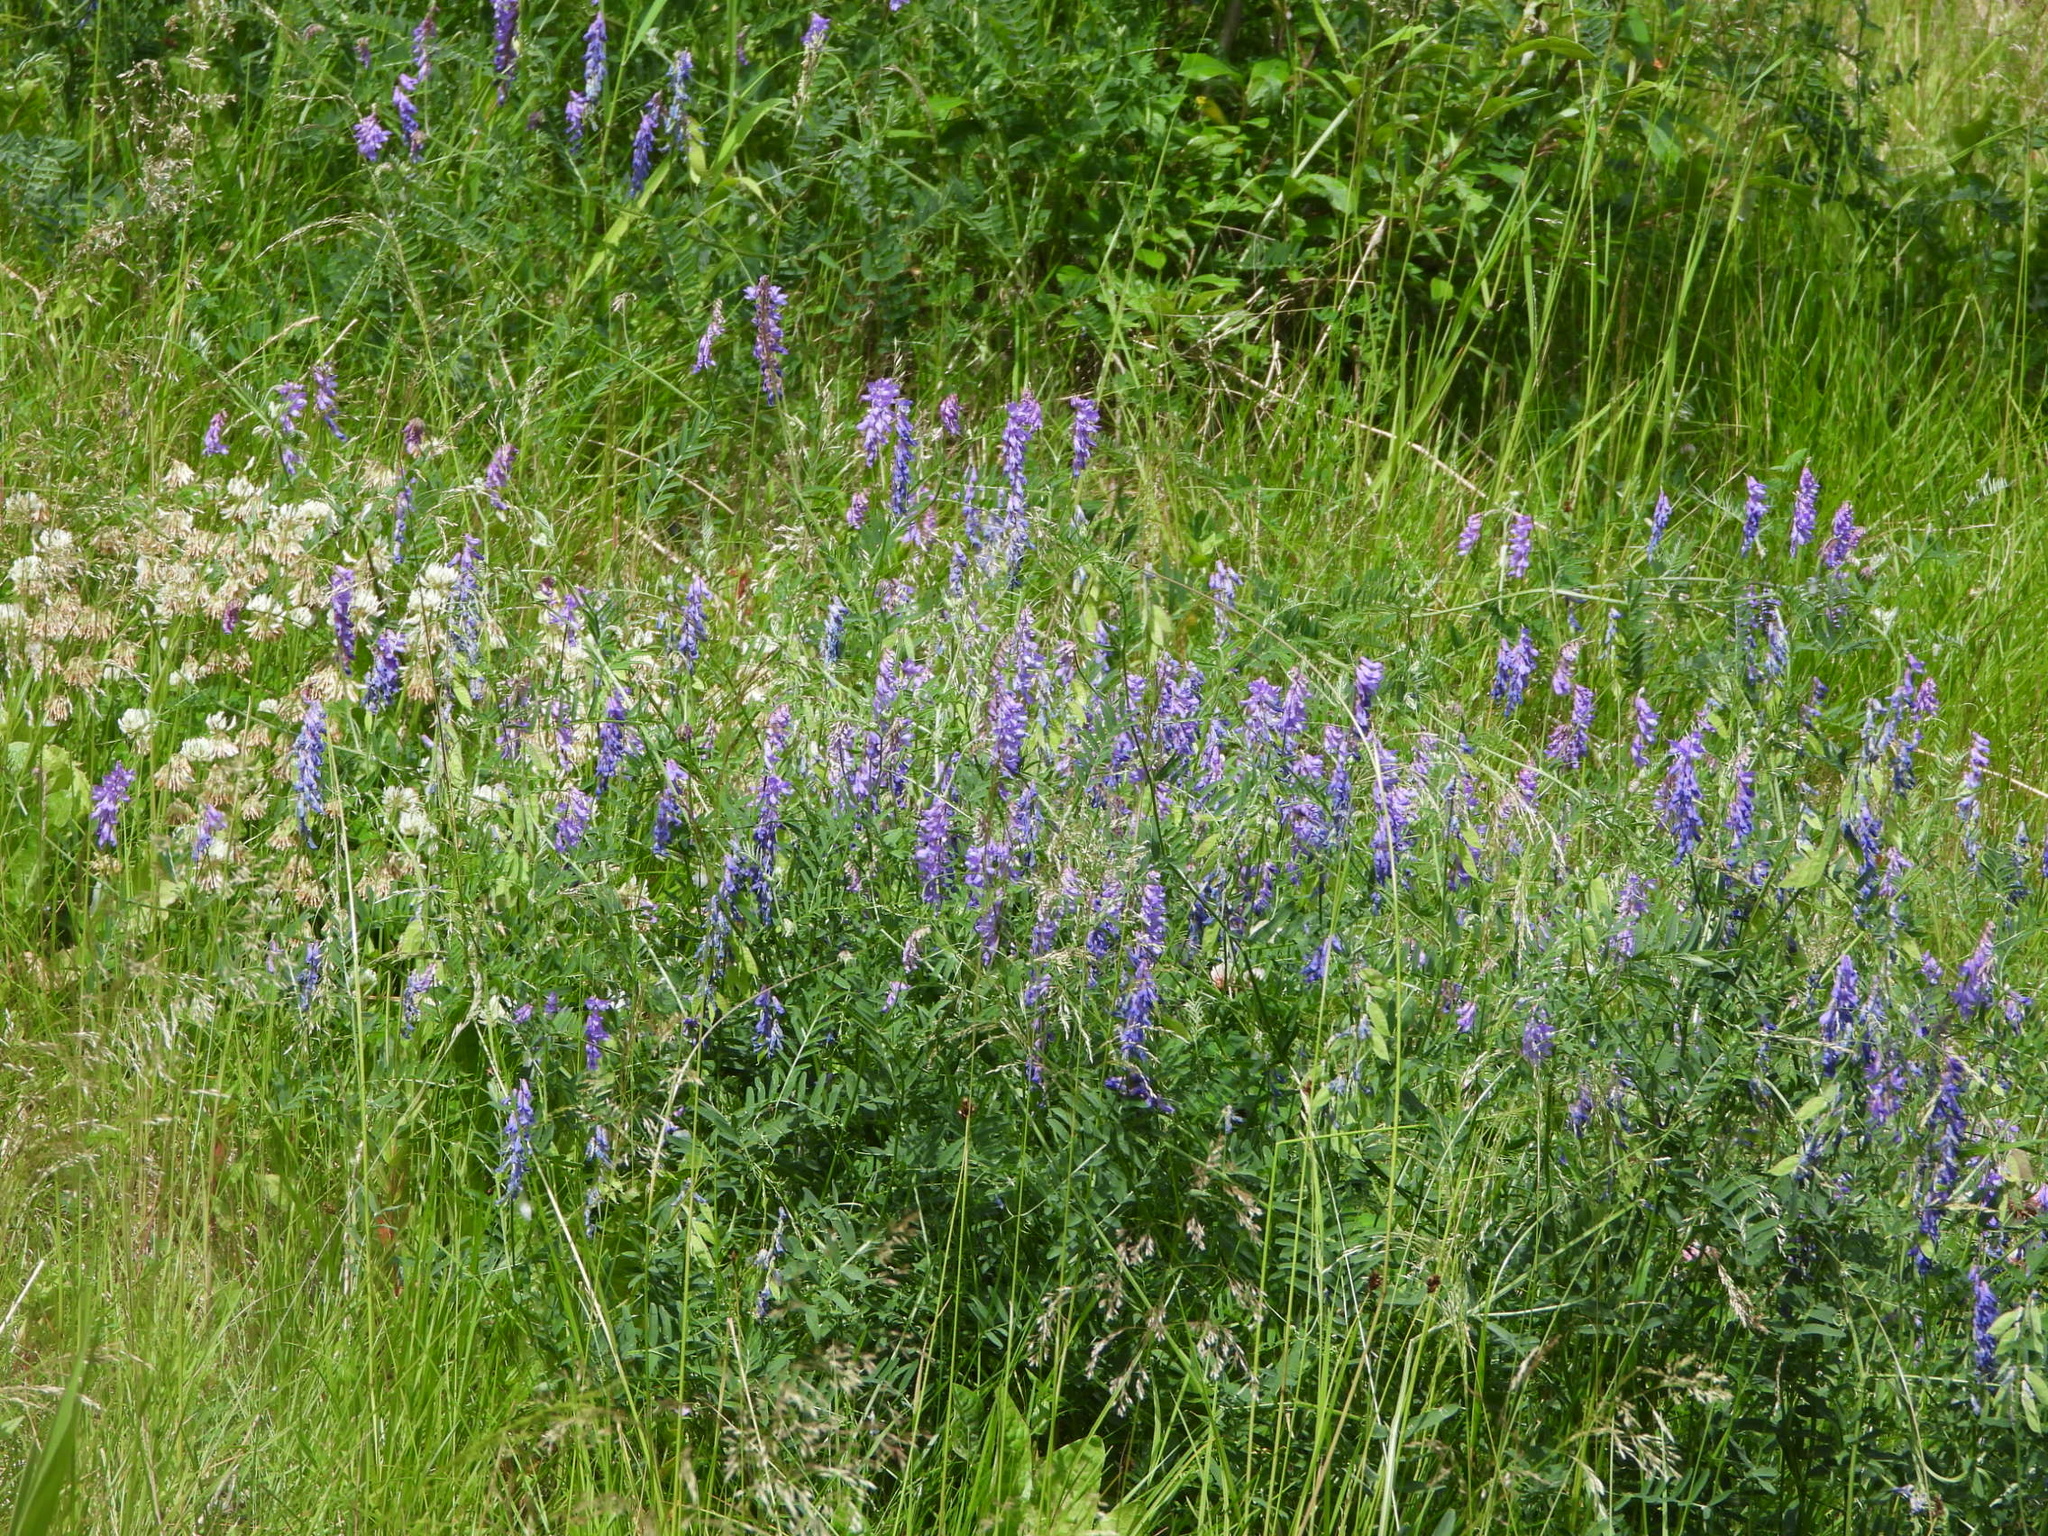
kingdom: Plantae
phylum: Tracheophyta
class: Magnoliopsida
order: Fabales
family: Fabaceae
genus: Vicia
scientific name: Vicia cracca
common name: Bird vetch
